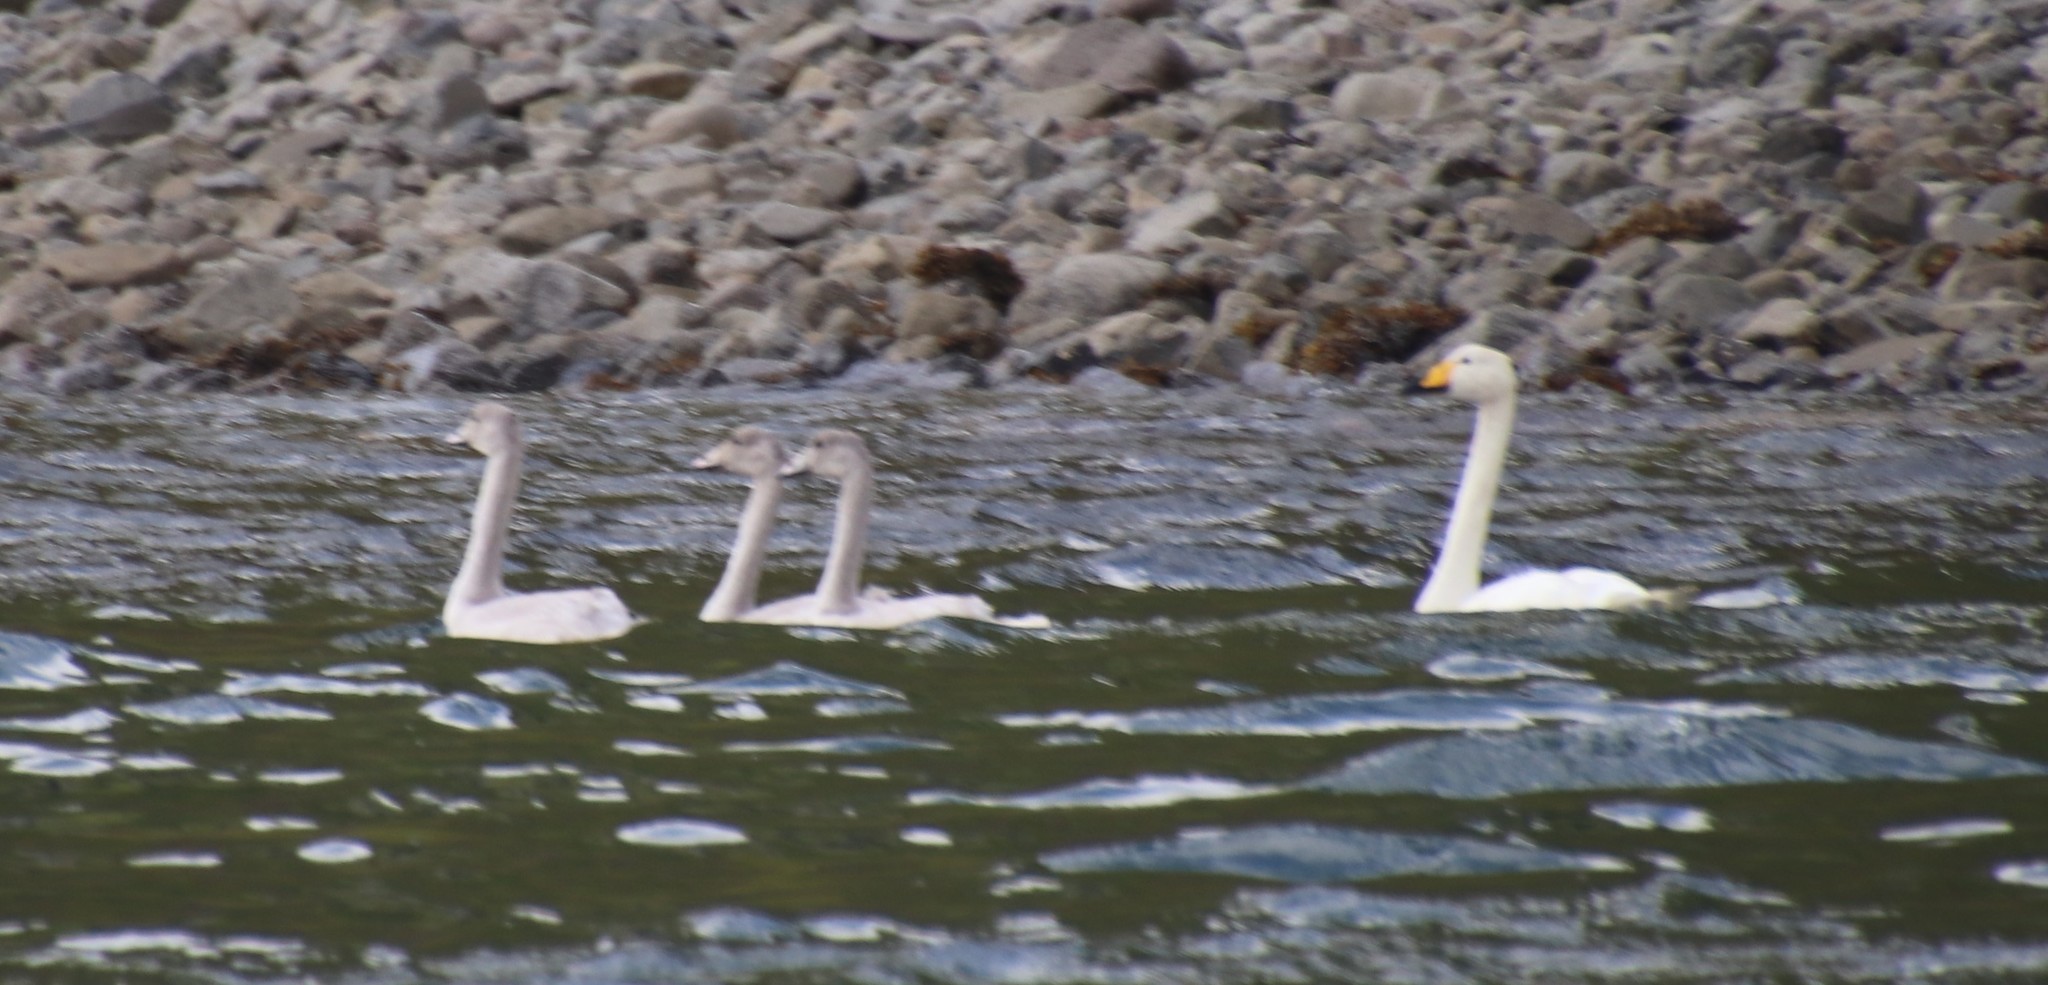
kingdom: Animalia
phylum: Chordata
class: Aves
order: Anseriformes
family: Anatidae
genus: Cygnus
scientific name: Cygnus cygnus
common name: Whooper swan
